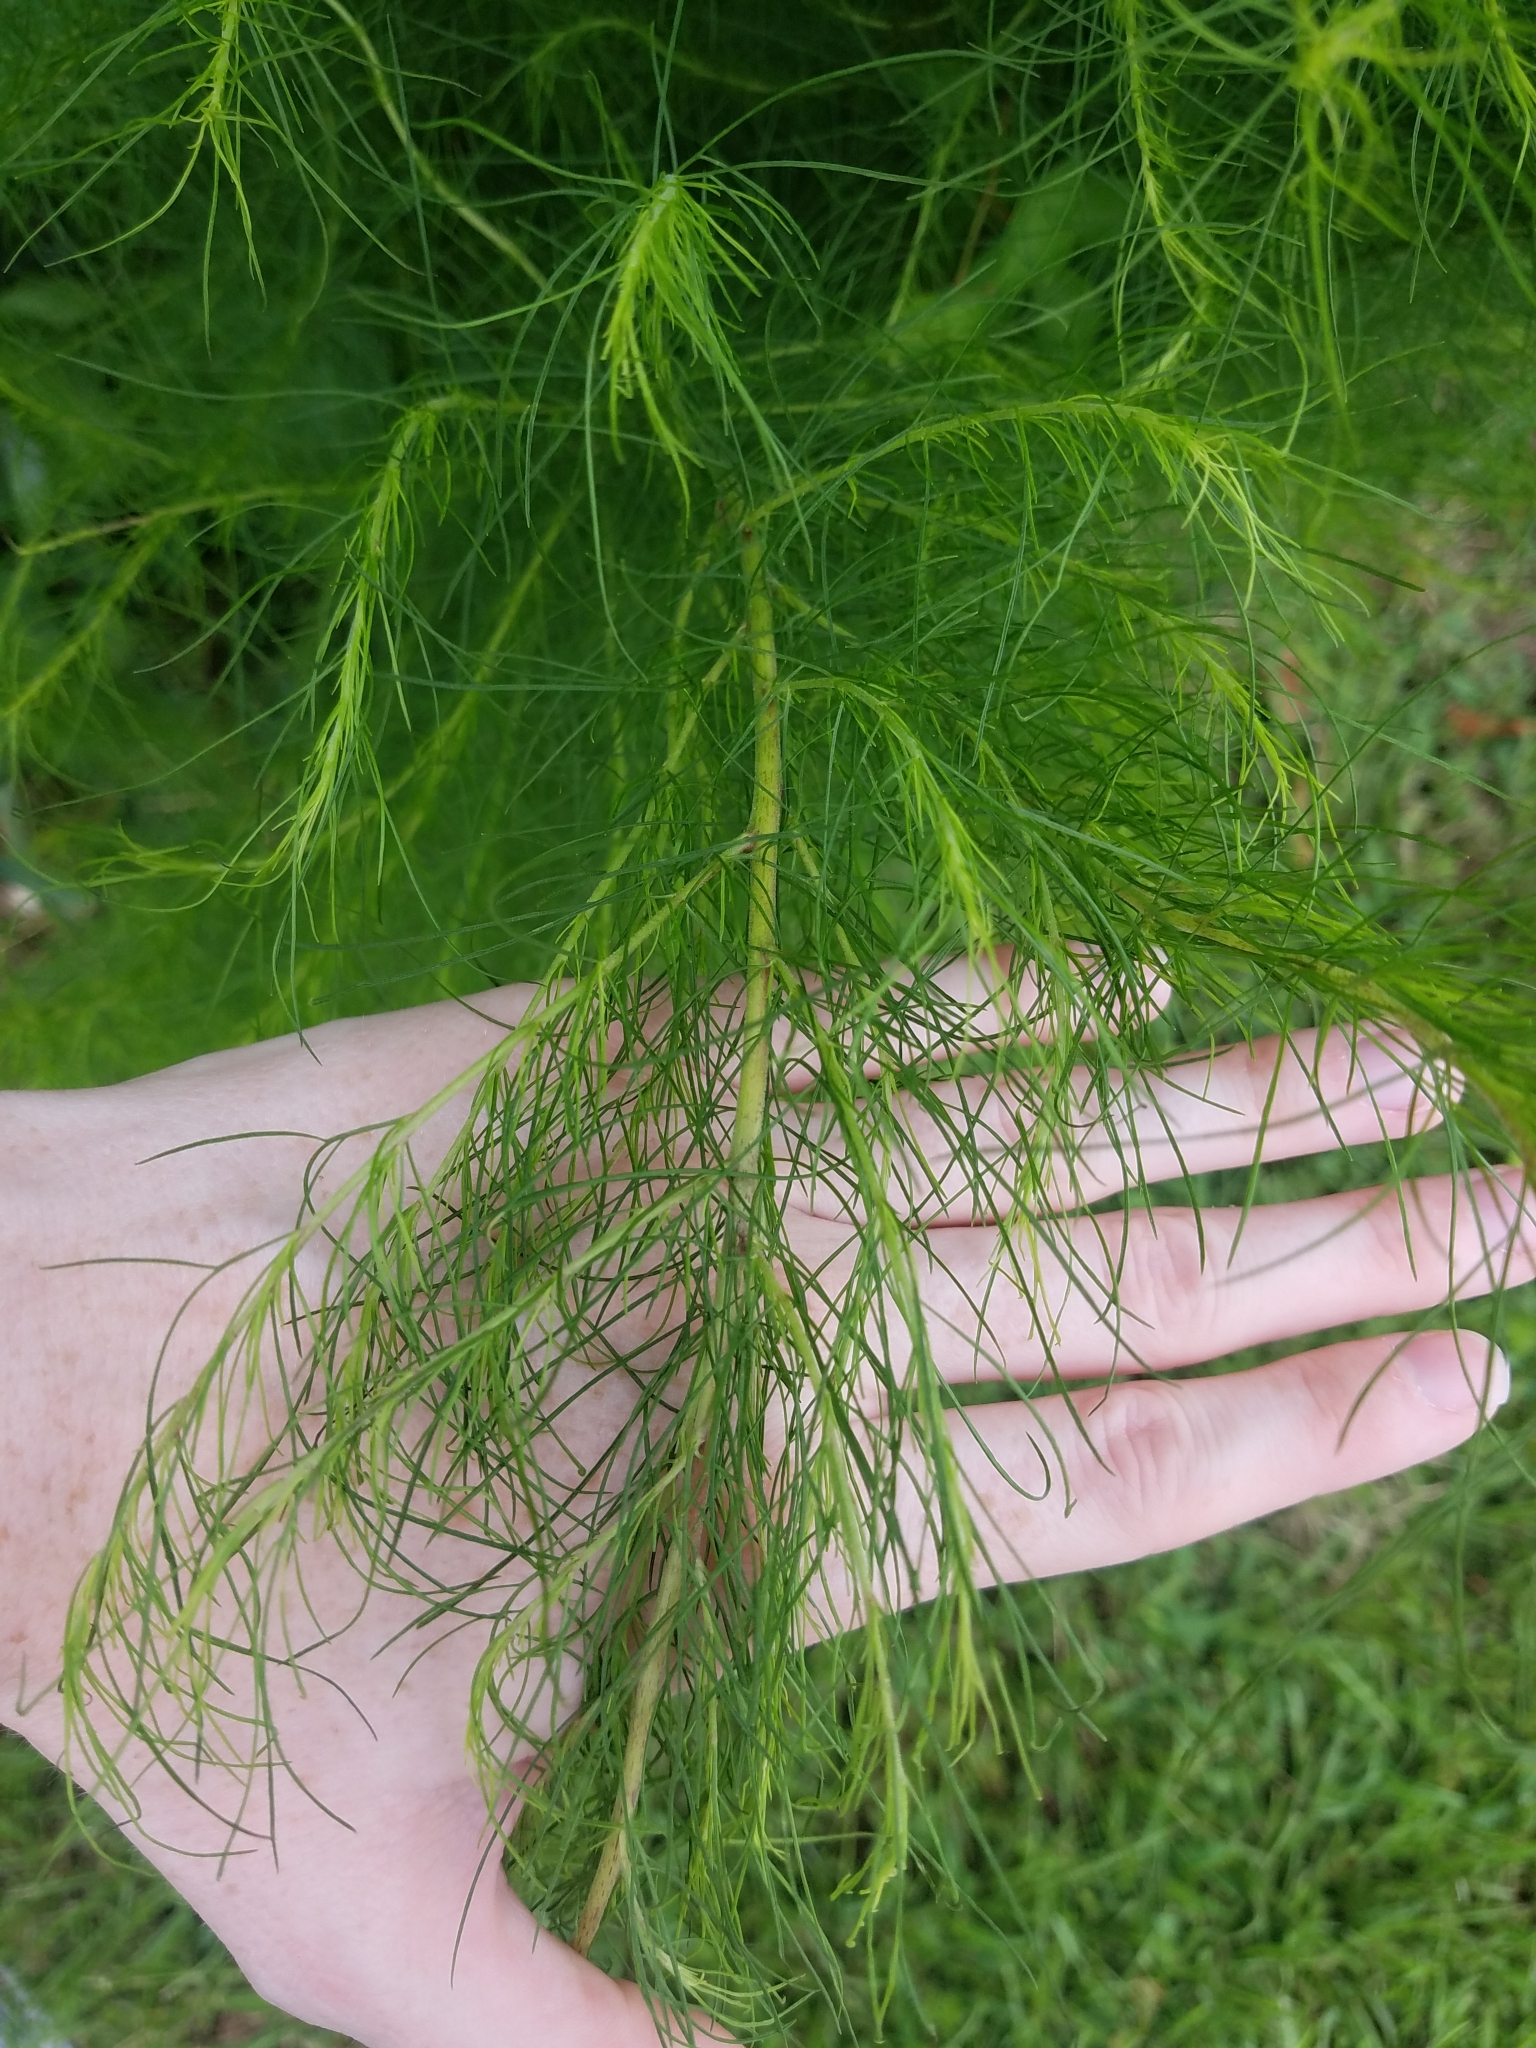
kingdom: Plantae
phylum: Tracheophyta
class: Magnoliopsida
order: Asterales
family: Asteraceae
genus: Eupatorium
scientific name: Eupatorium capillifolium
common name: Dog-fennel
